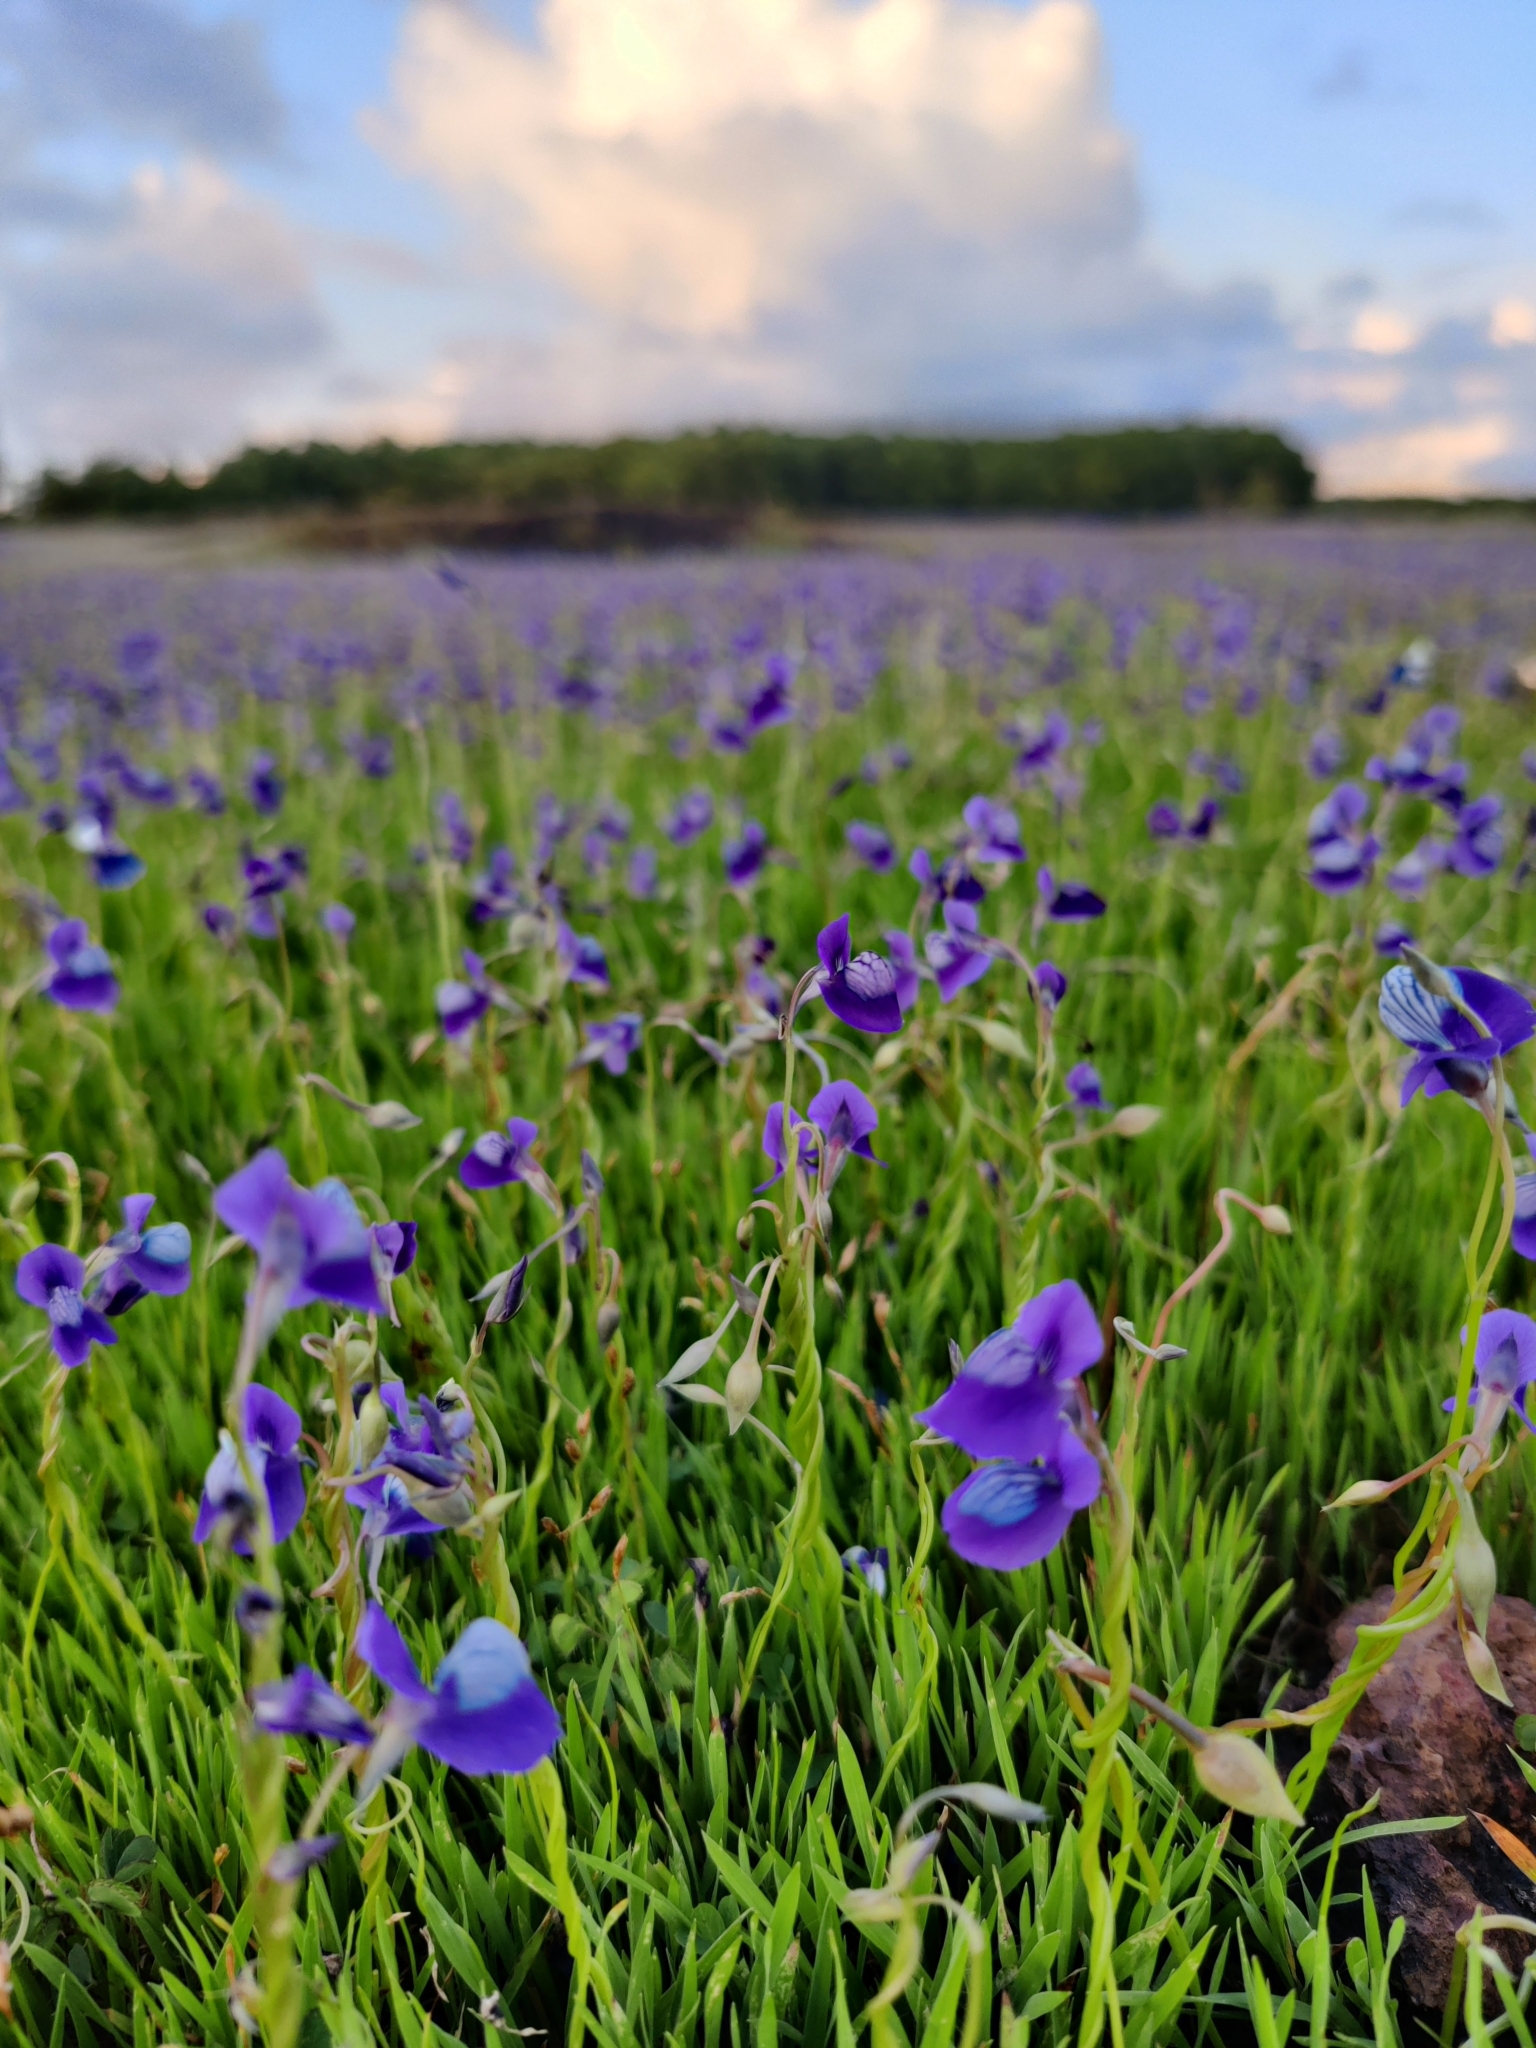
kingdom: Plantae
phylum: Tracheophyta
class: Magnoliopsida
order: Lamiales
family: Lentibulariaceae
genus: Utricularia
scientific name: Utricularia reticulata
